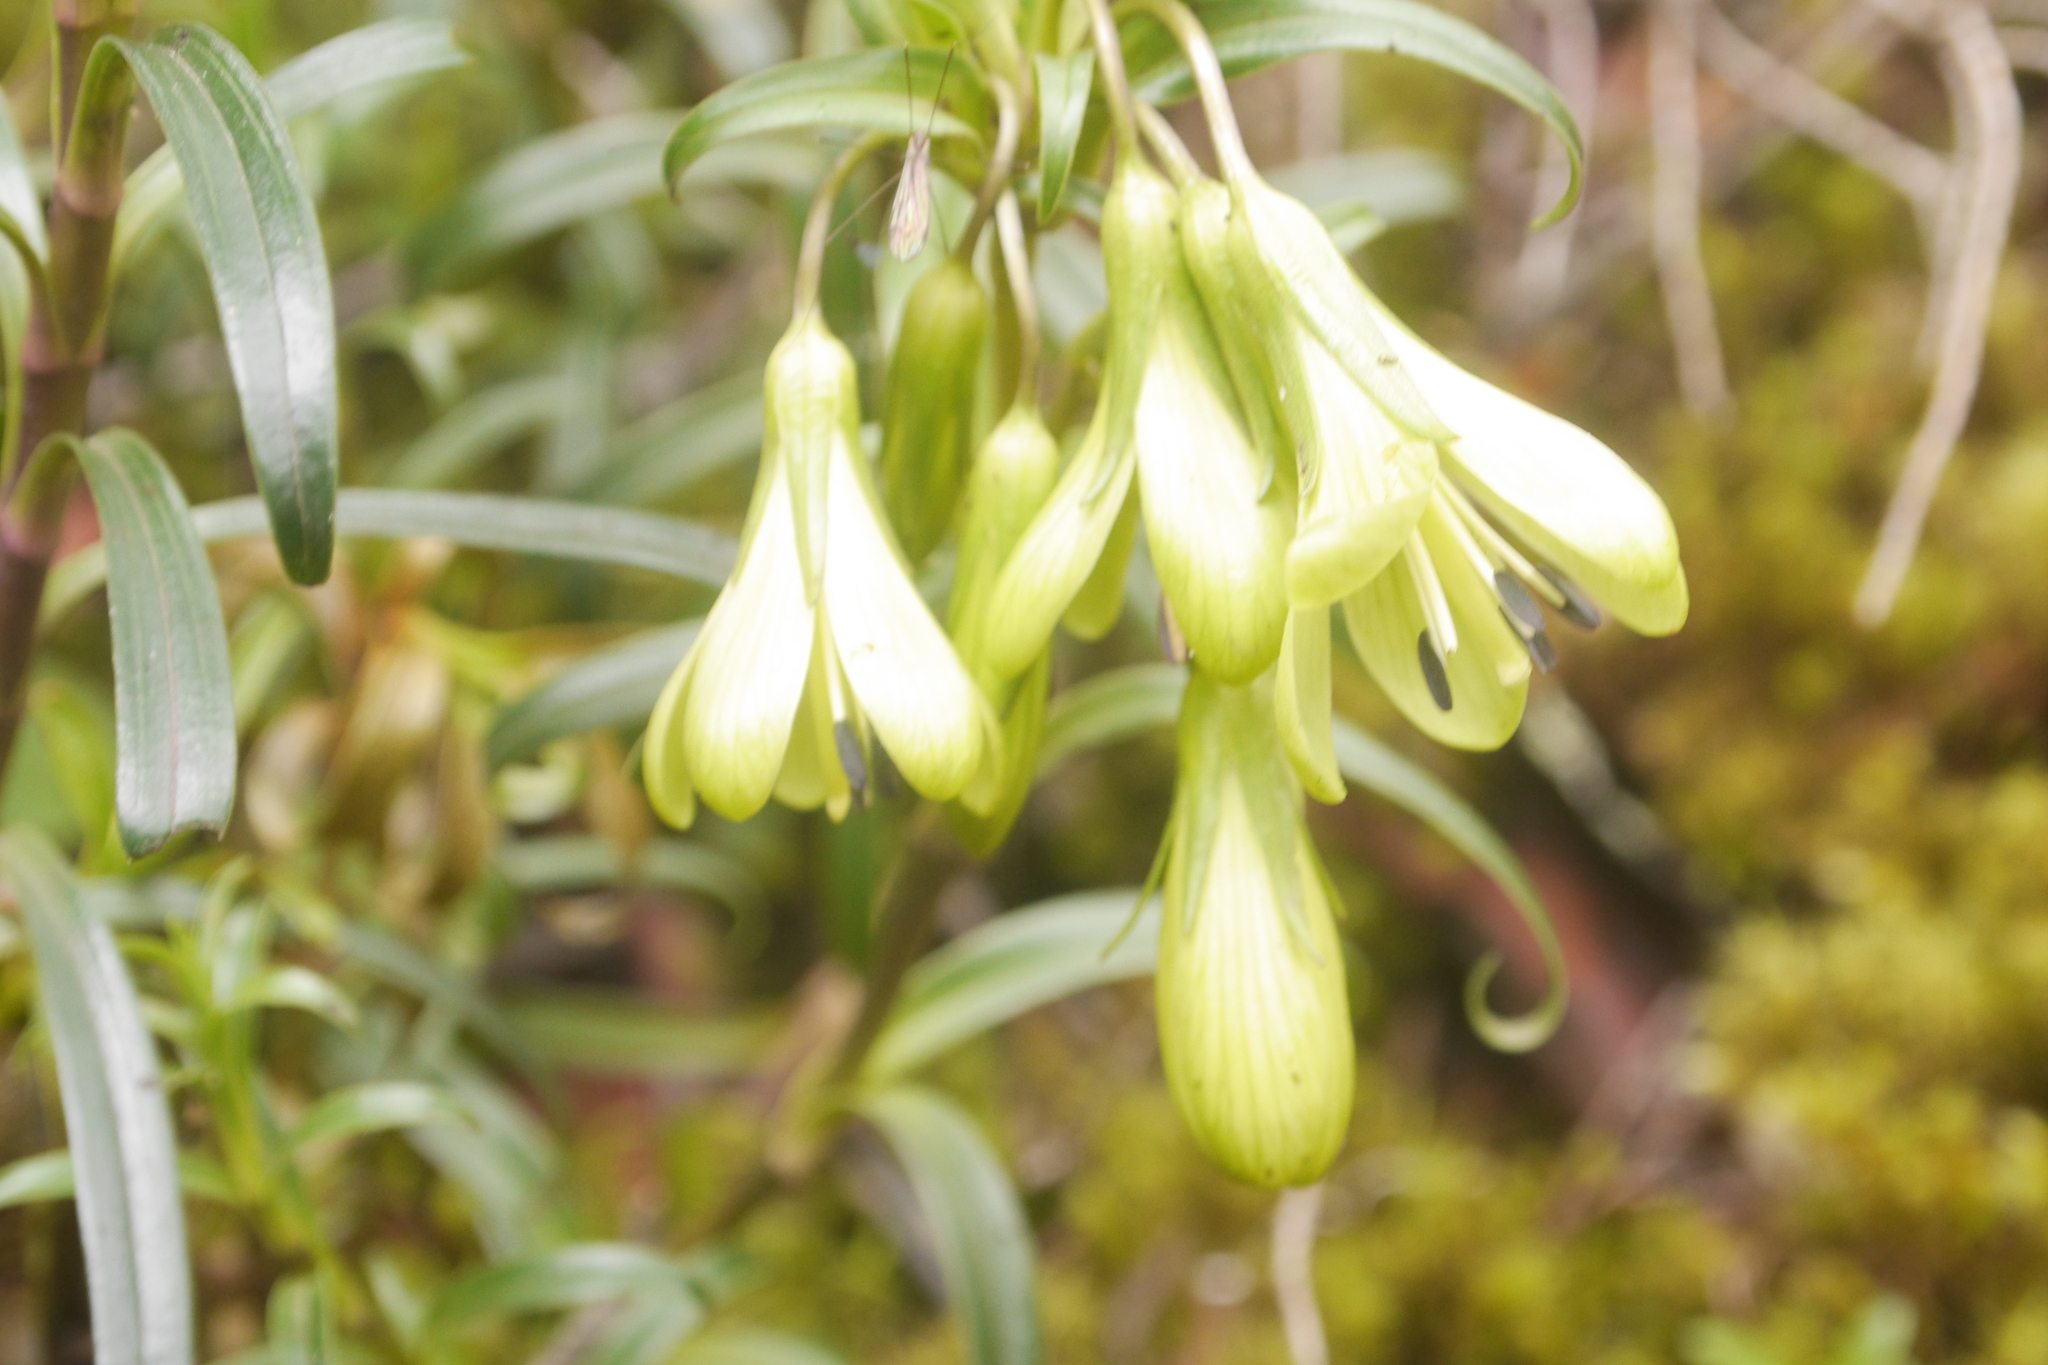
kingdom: Plantae
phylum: Tracheophyta
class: Magnoliopsida
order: Gentianales
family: Gentianaceae
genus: Gentianella
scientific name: Gentianella longibarbata
